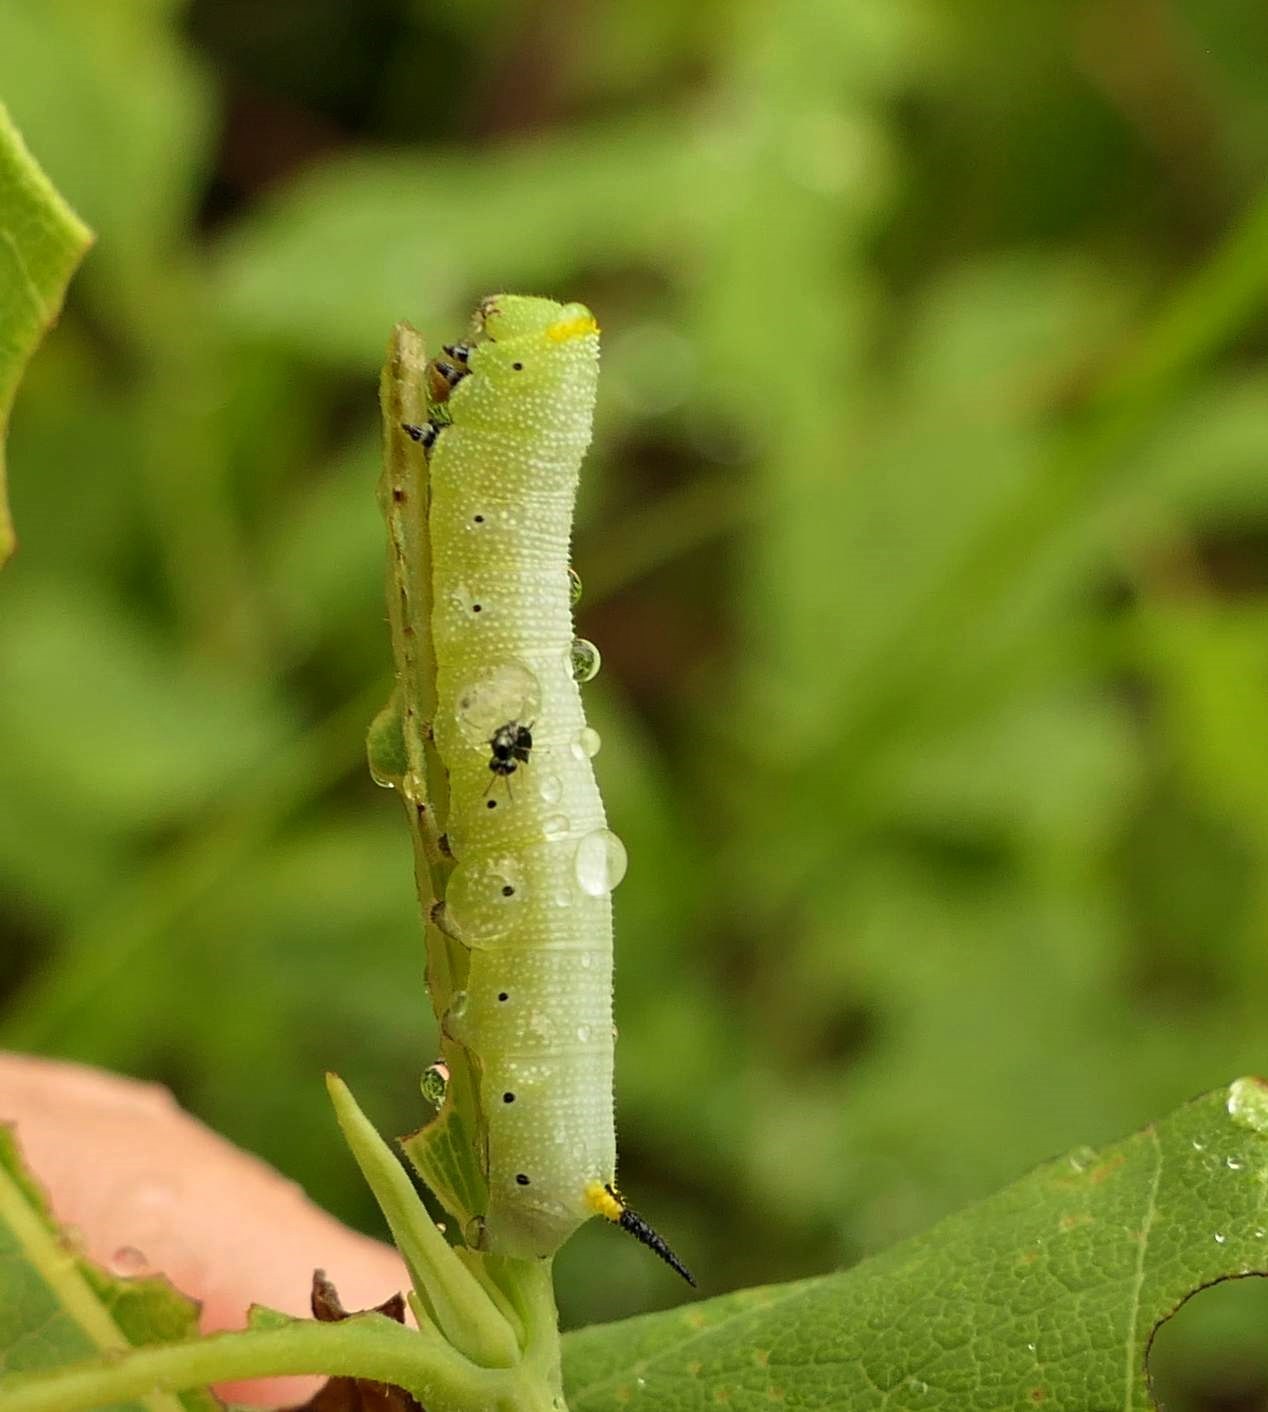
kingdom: Animalia
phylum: Arthropoda
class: Insecta
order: Lepidoptera
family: Sphingidae
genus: Hemaris
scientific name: Hemaris diffinis
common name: Bumblebee moth
